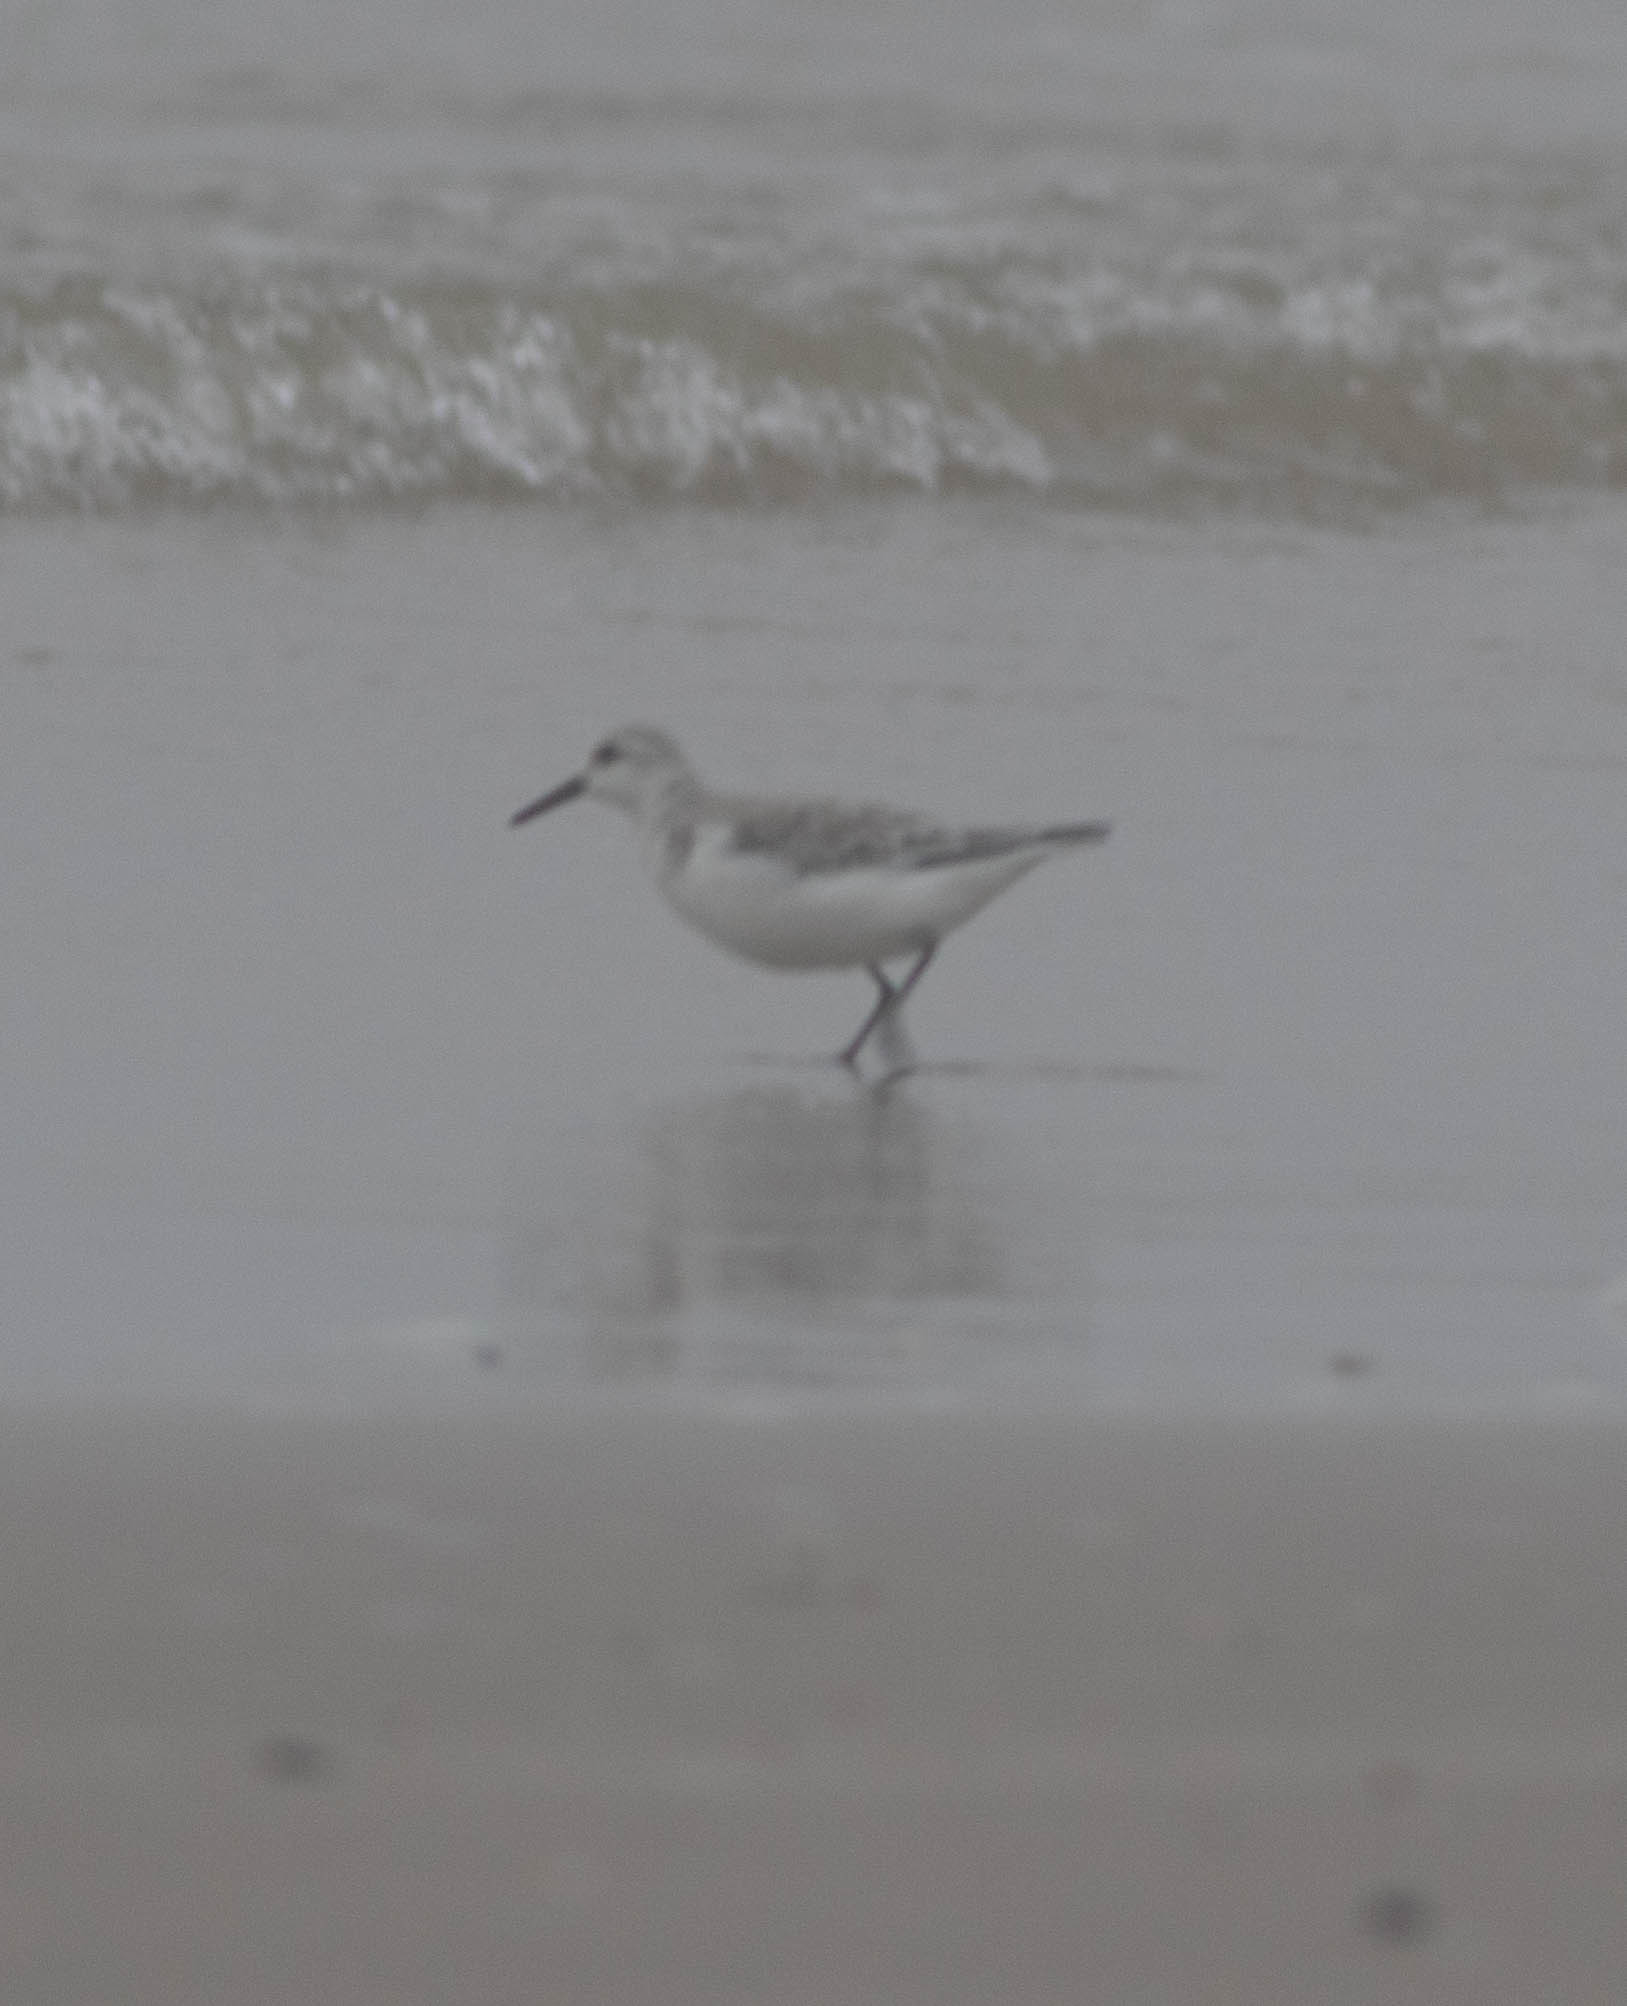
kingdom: Animalia
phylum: Chordata
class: Aves
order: Charadriiformes
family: Scolopacidae
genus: Calidris
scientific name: Calidris alba
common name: Sanderling
